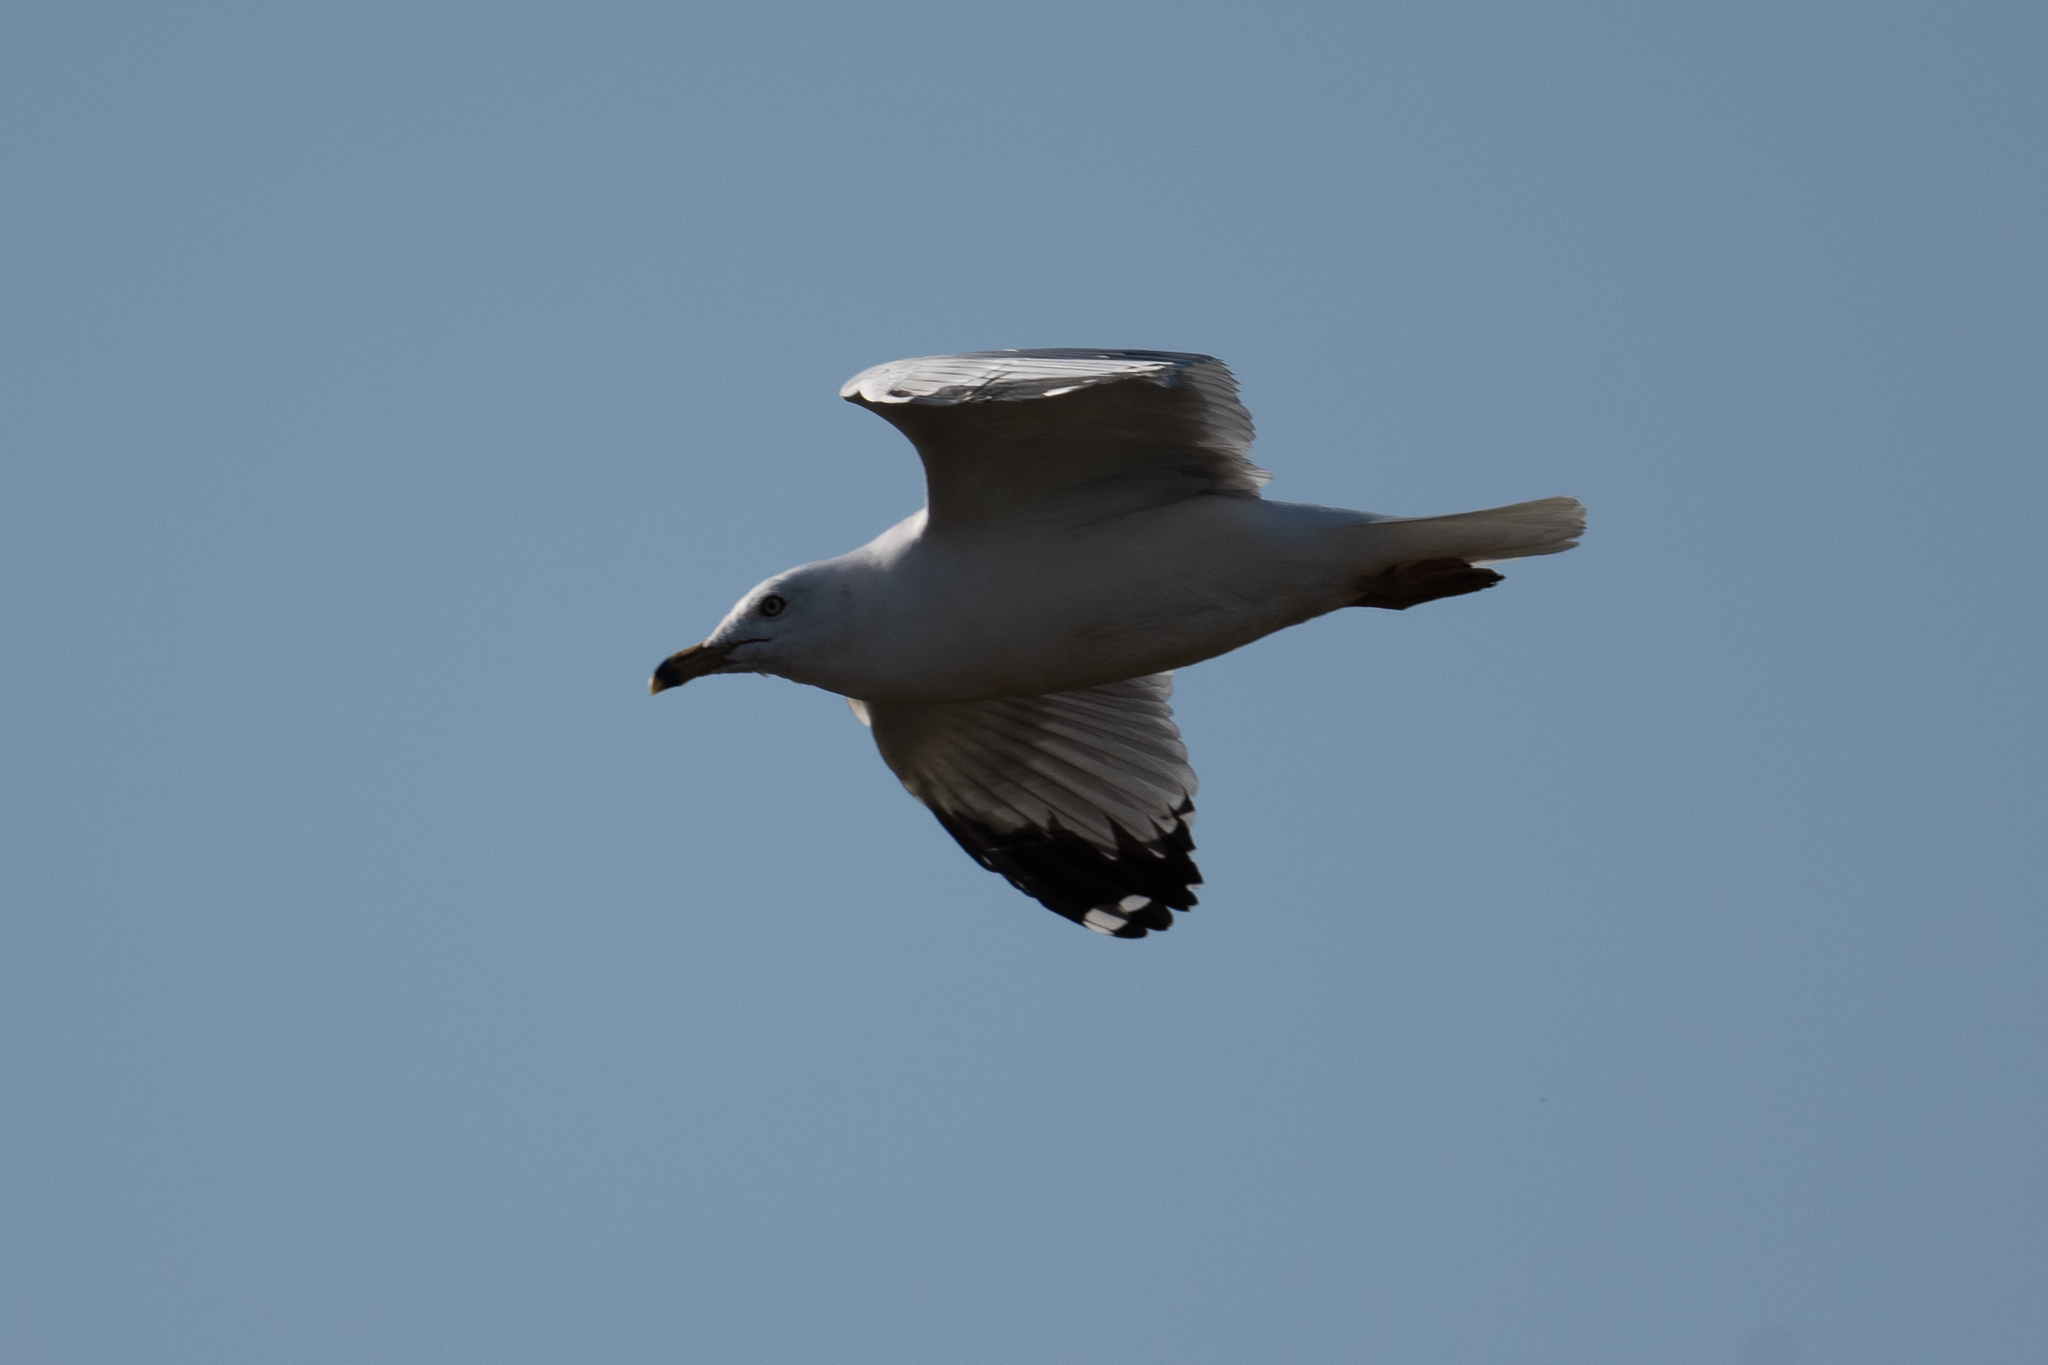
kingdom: Animalia
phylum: Chordata
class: Aves
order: Charadriiformes
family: Laridae
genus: Larus
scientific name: Larus delawarensis
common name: Ring-billed gull
